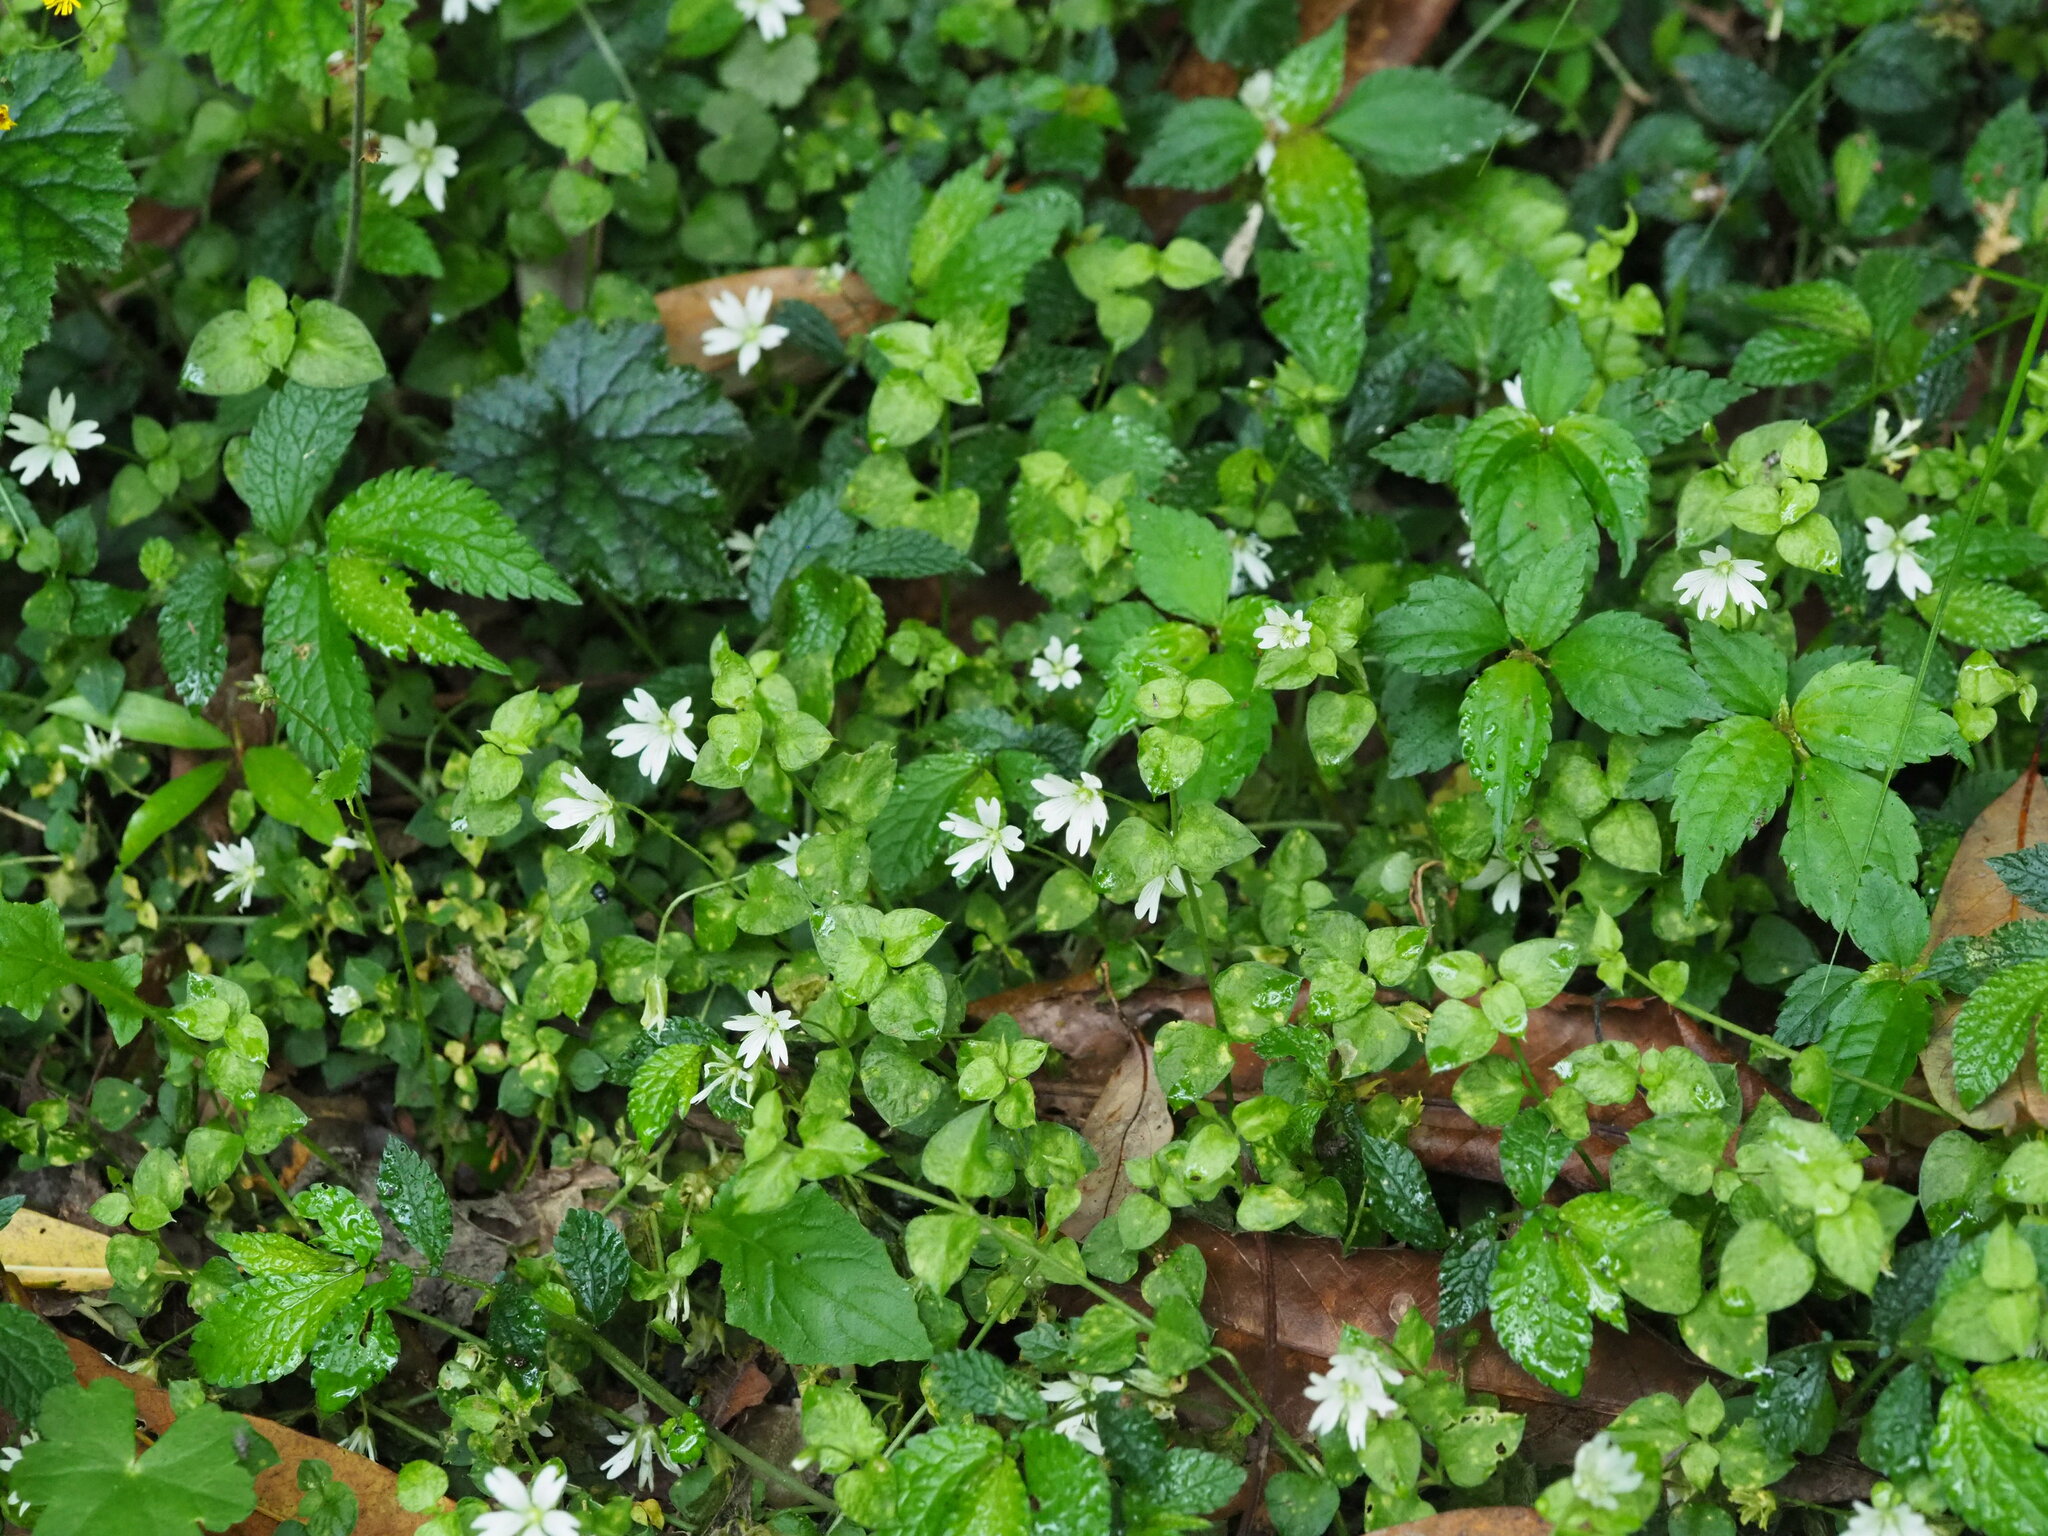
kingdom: Plantae
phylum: Tracheophyta
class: Magnoliopsida
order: Caryophyllales
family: Caryophyllaceae
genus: Nubelaria
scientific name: Nubelaria arisanensis
